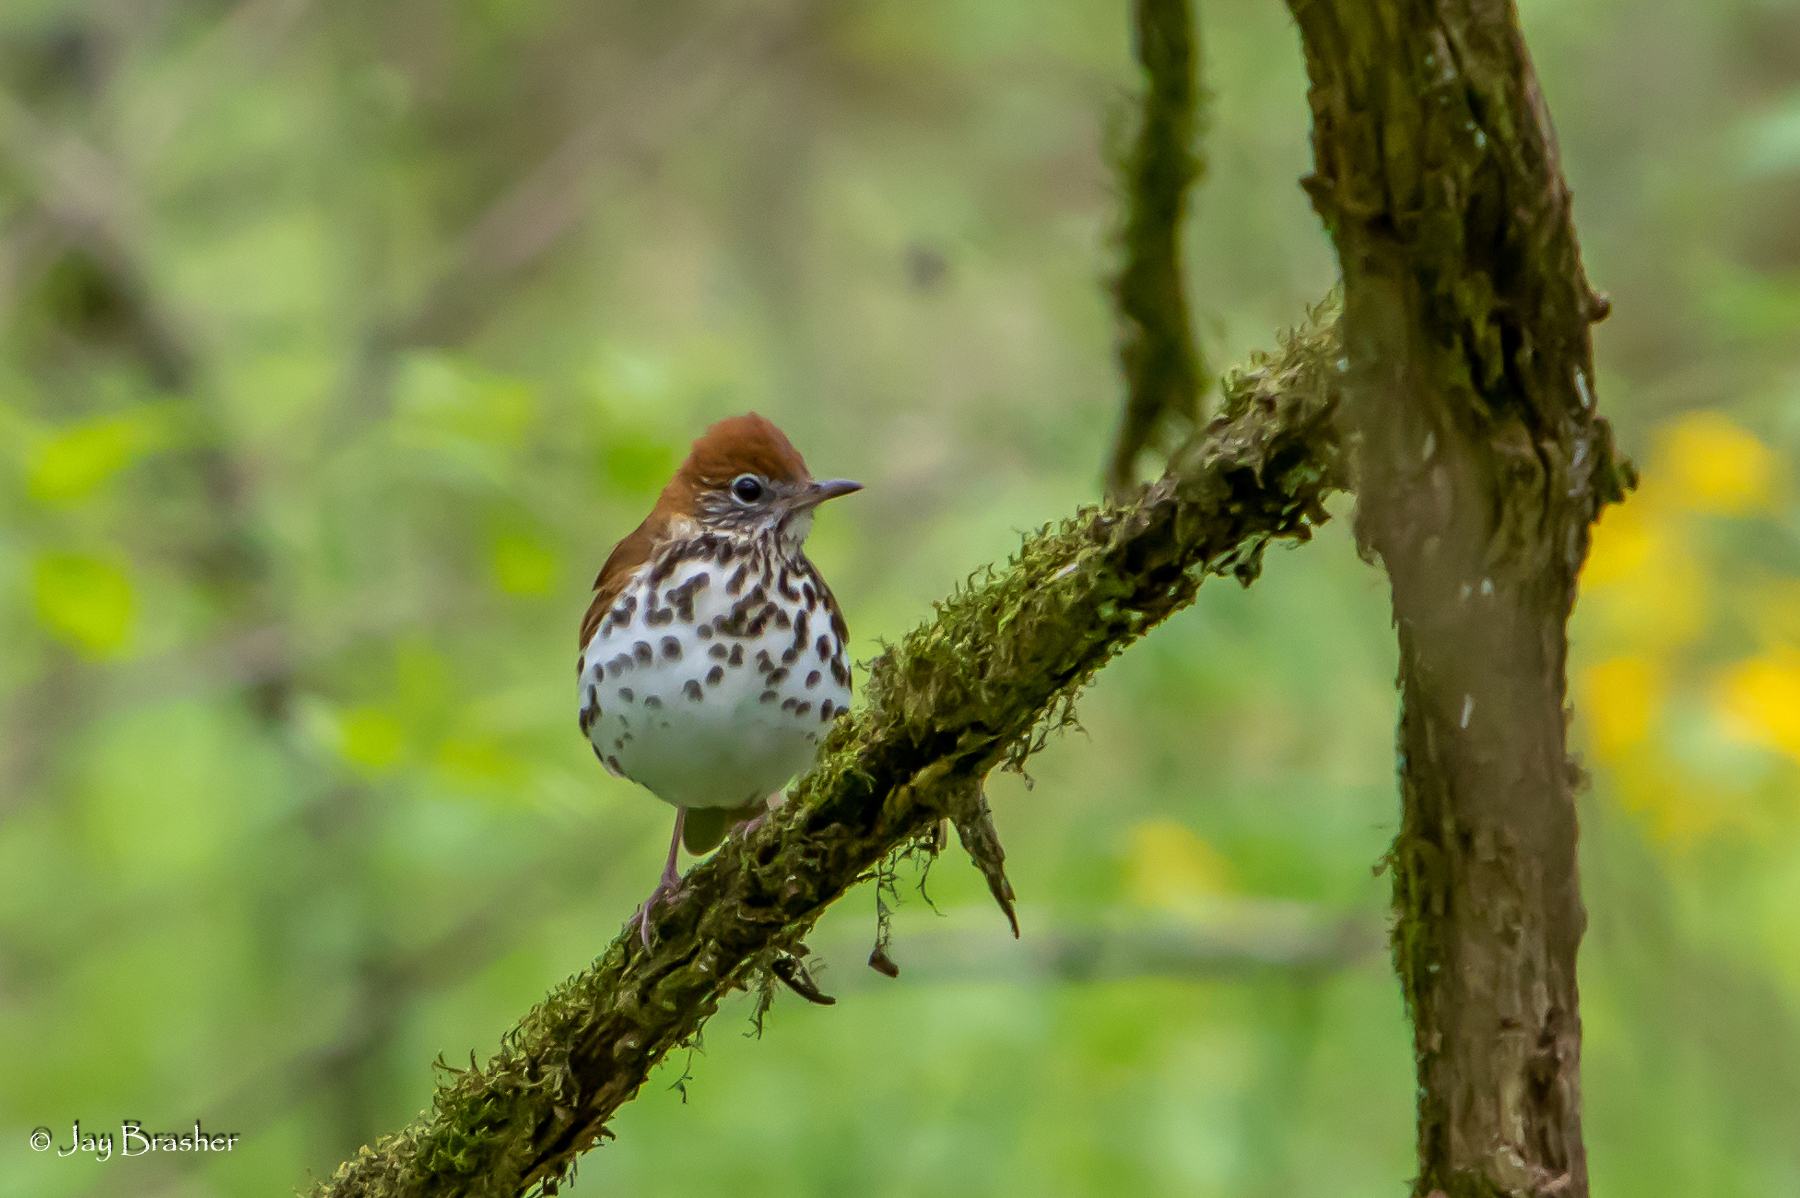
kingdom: Animalia
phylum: Chordata
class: Aves
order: Passeriformes
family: Turdidae
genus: Hylocichla
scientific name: Hylocichla mustelina
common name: Wood thrush
